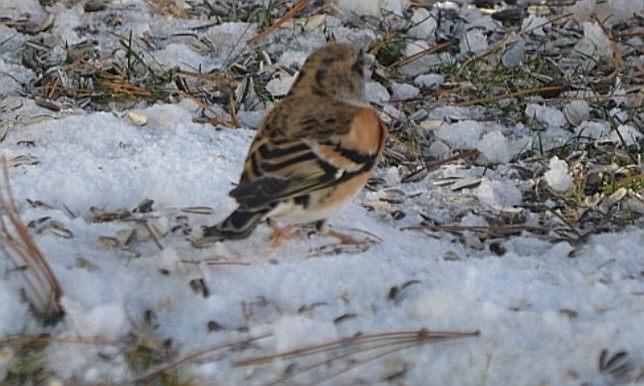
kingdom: Animalia
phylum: Chordata
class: Aves
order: Passeriformes
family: Fringillidae
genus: Fringilla
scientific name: Fringilla montifringilla
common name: Brambling
